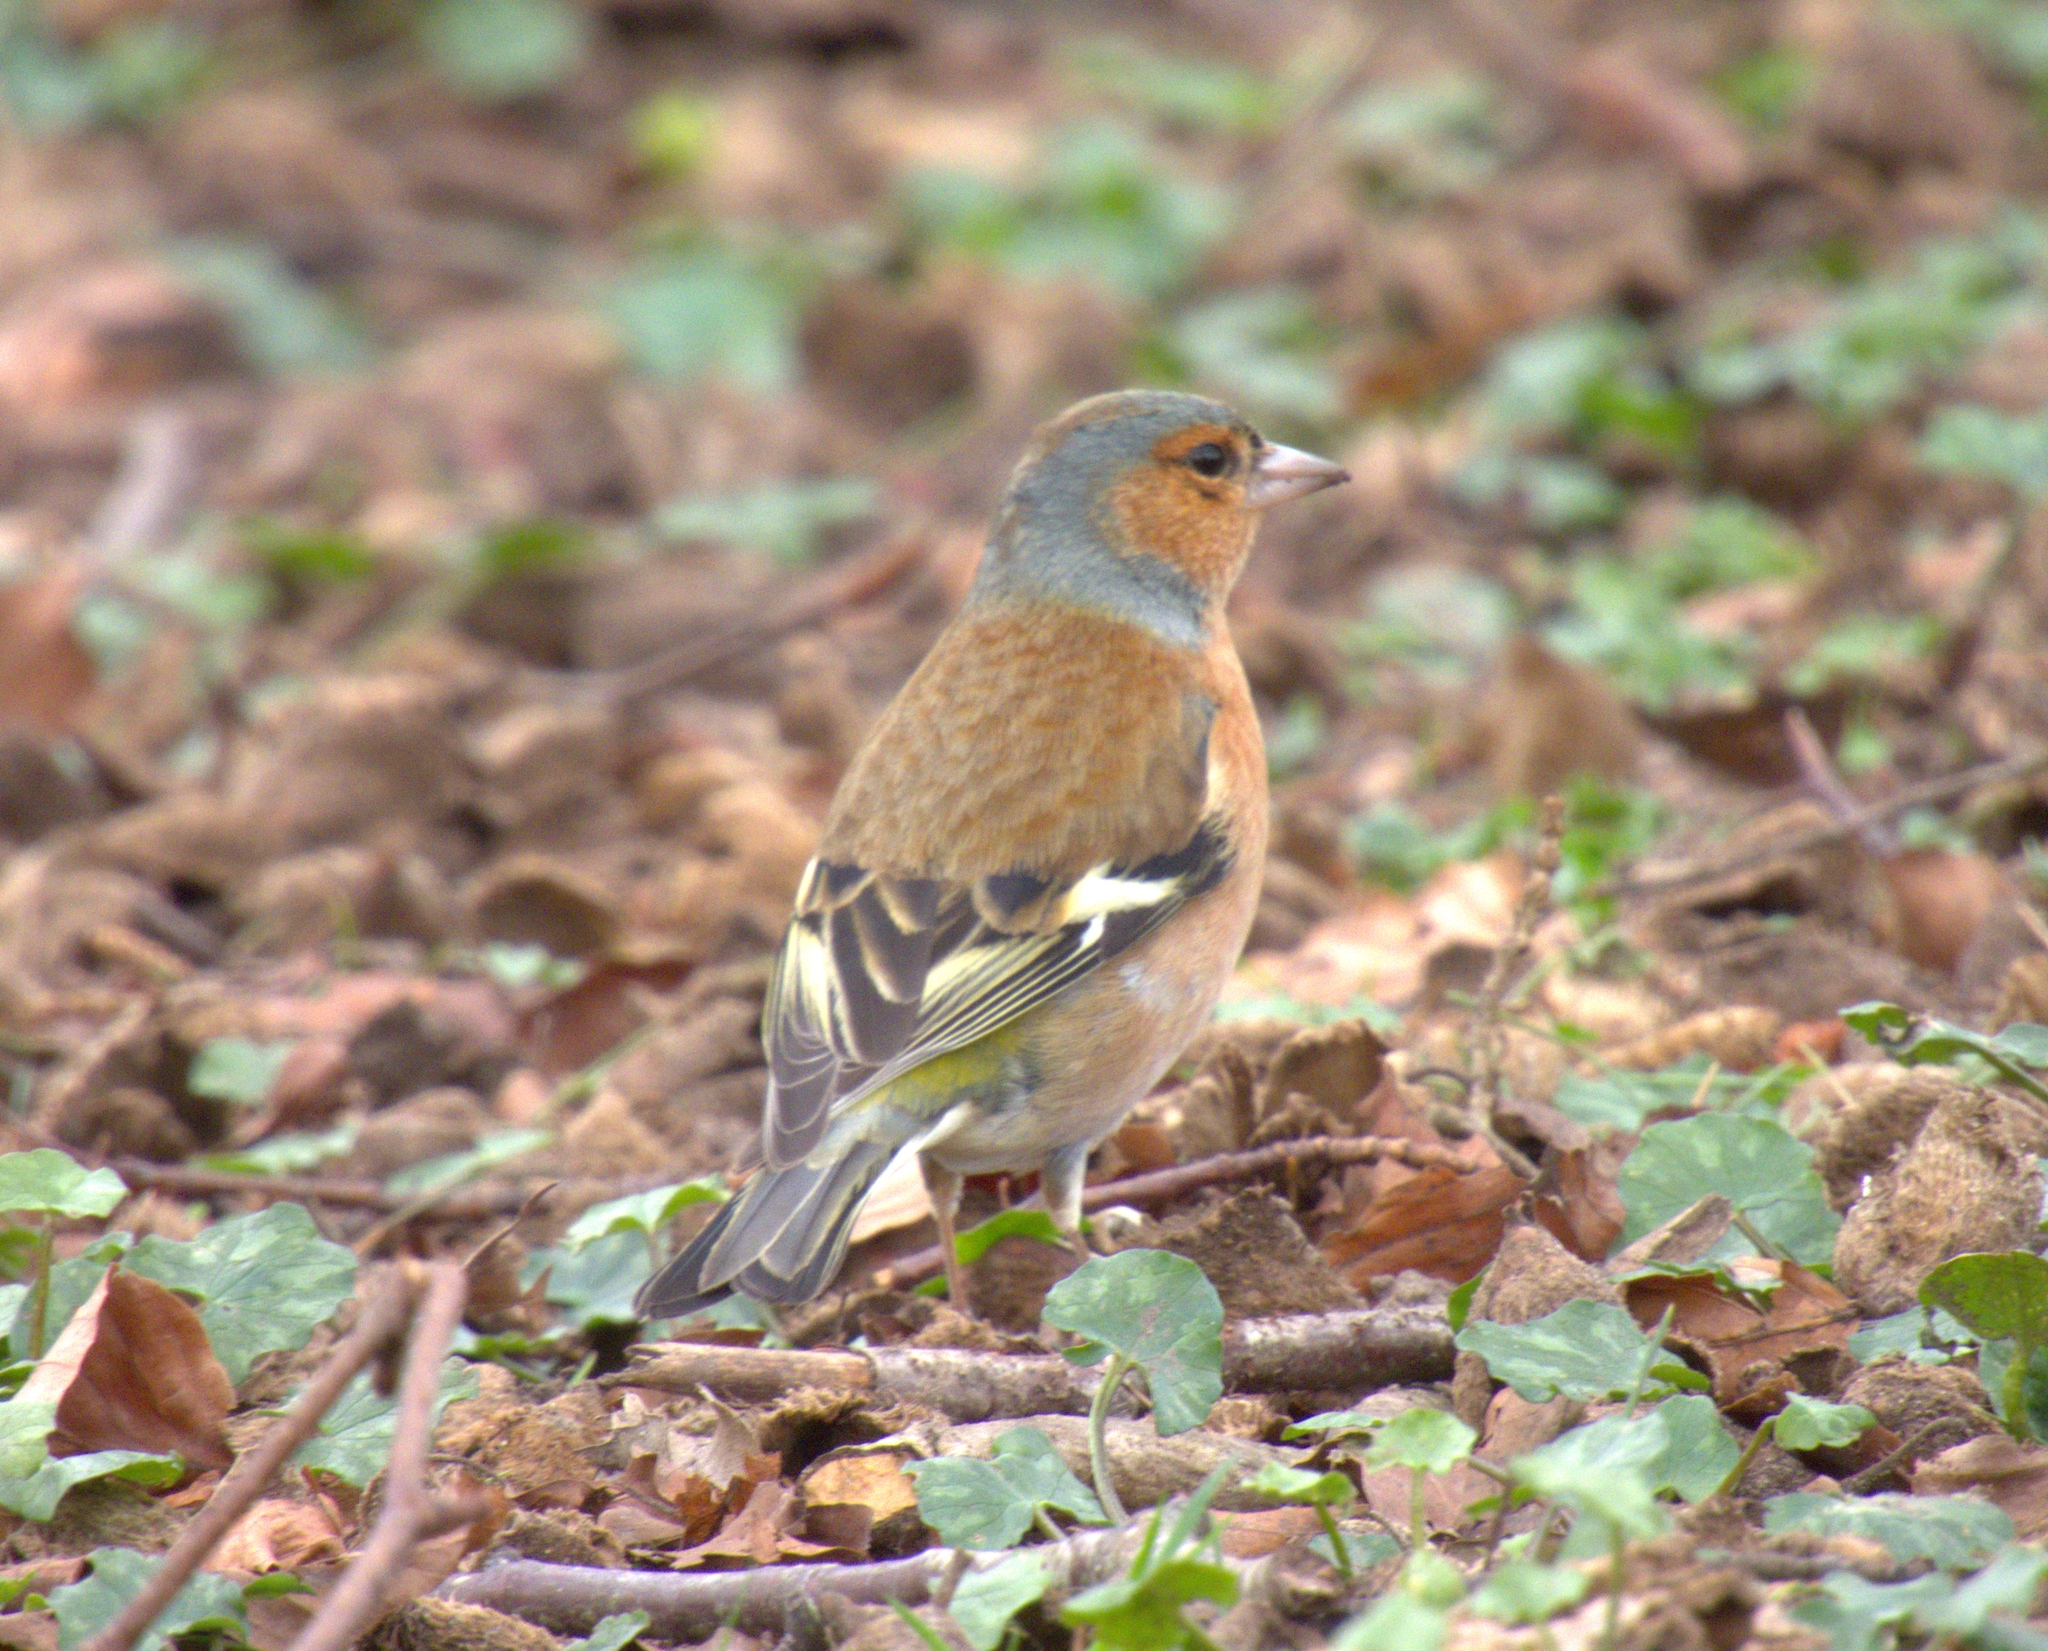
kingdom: Animalia
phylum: Chordata
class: Aves
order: Passeriformes
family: Fringillidae
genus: Fringilla
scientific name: Fringilla coelebs
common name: Common chaffinch
